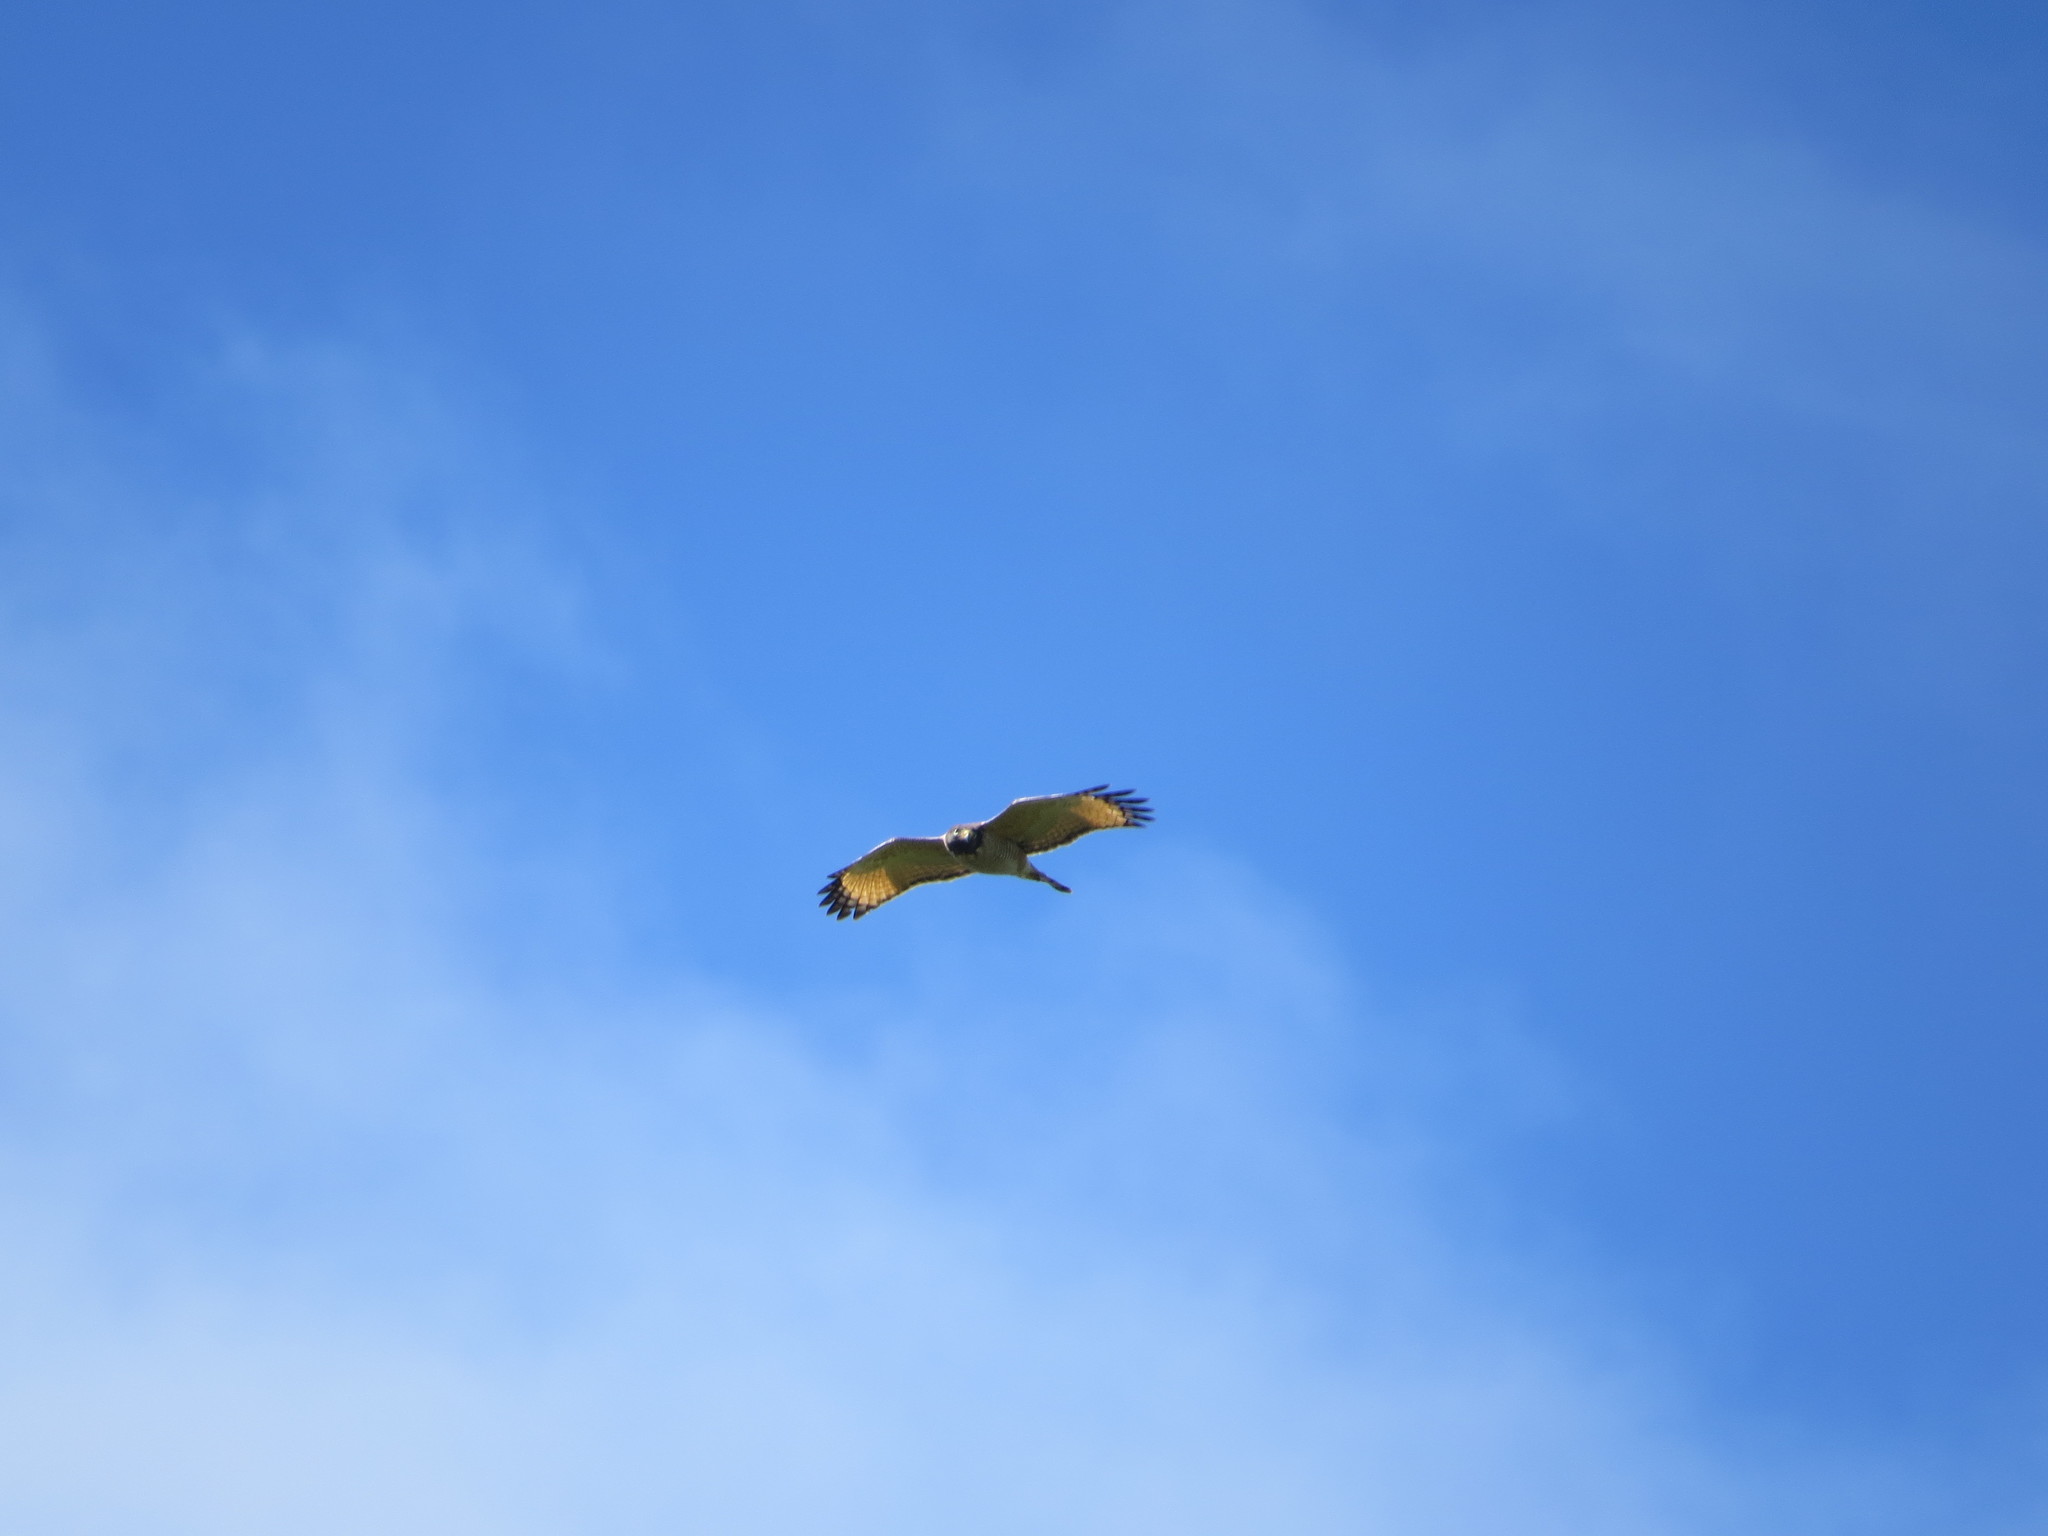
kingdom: Animalia
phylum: Chordata
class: Aves
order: Accipitriformes
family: Accipitridae
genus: Rupornis
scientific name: Rupornis magnirostris
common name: Roadside hawk
